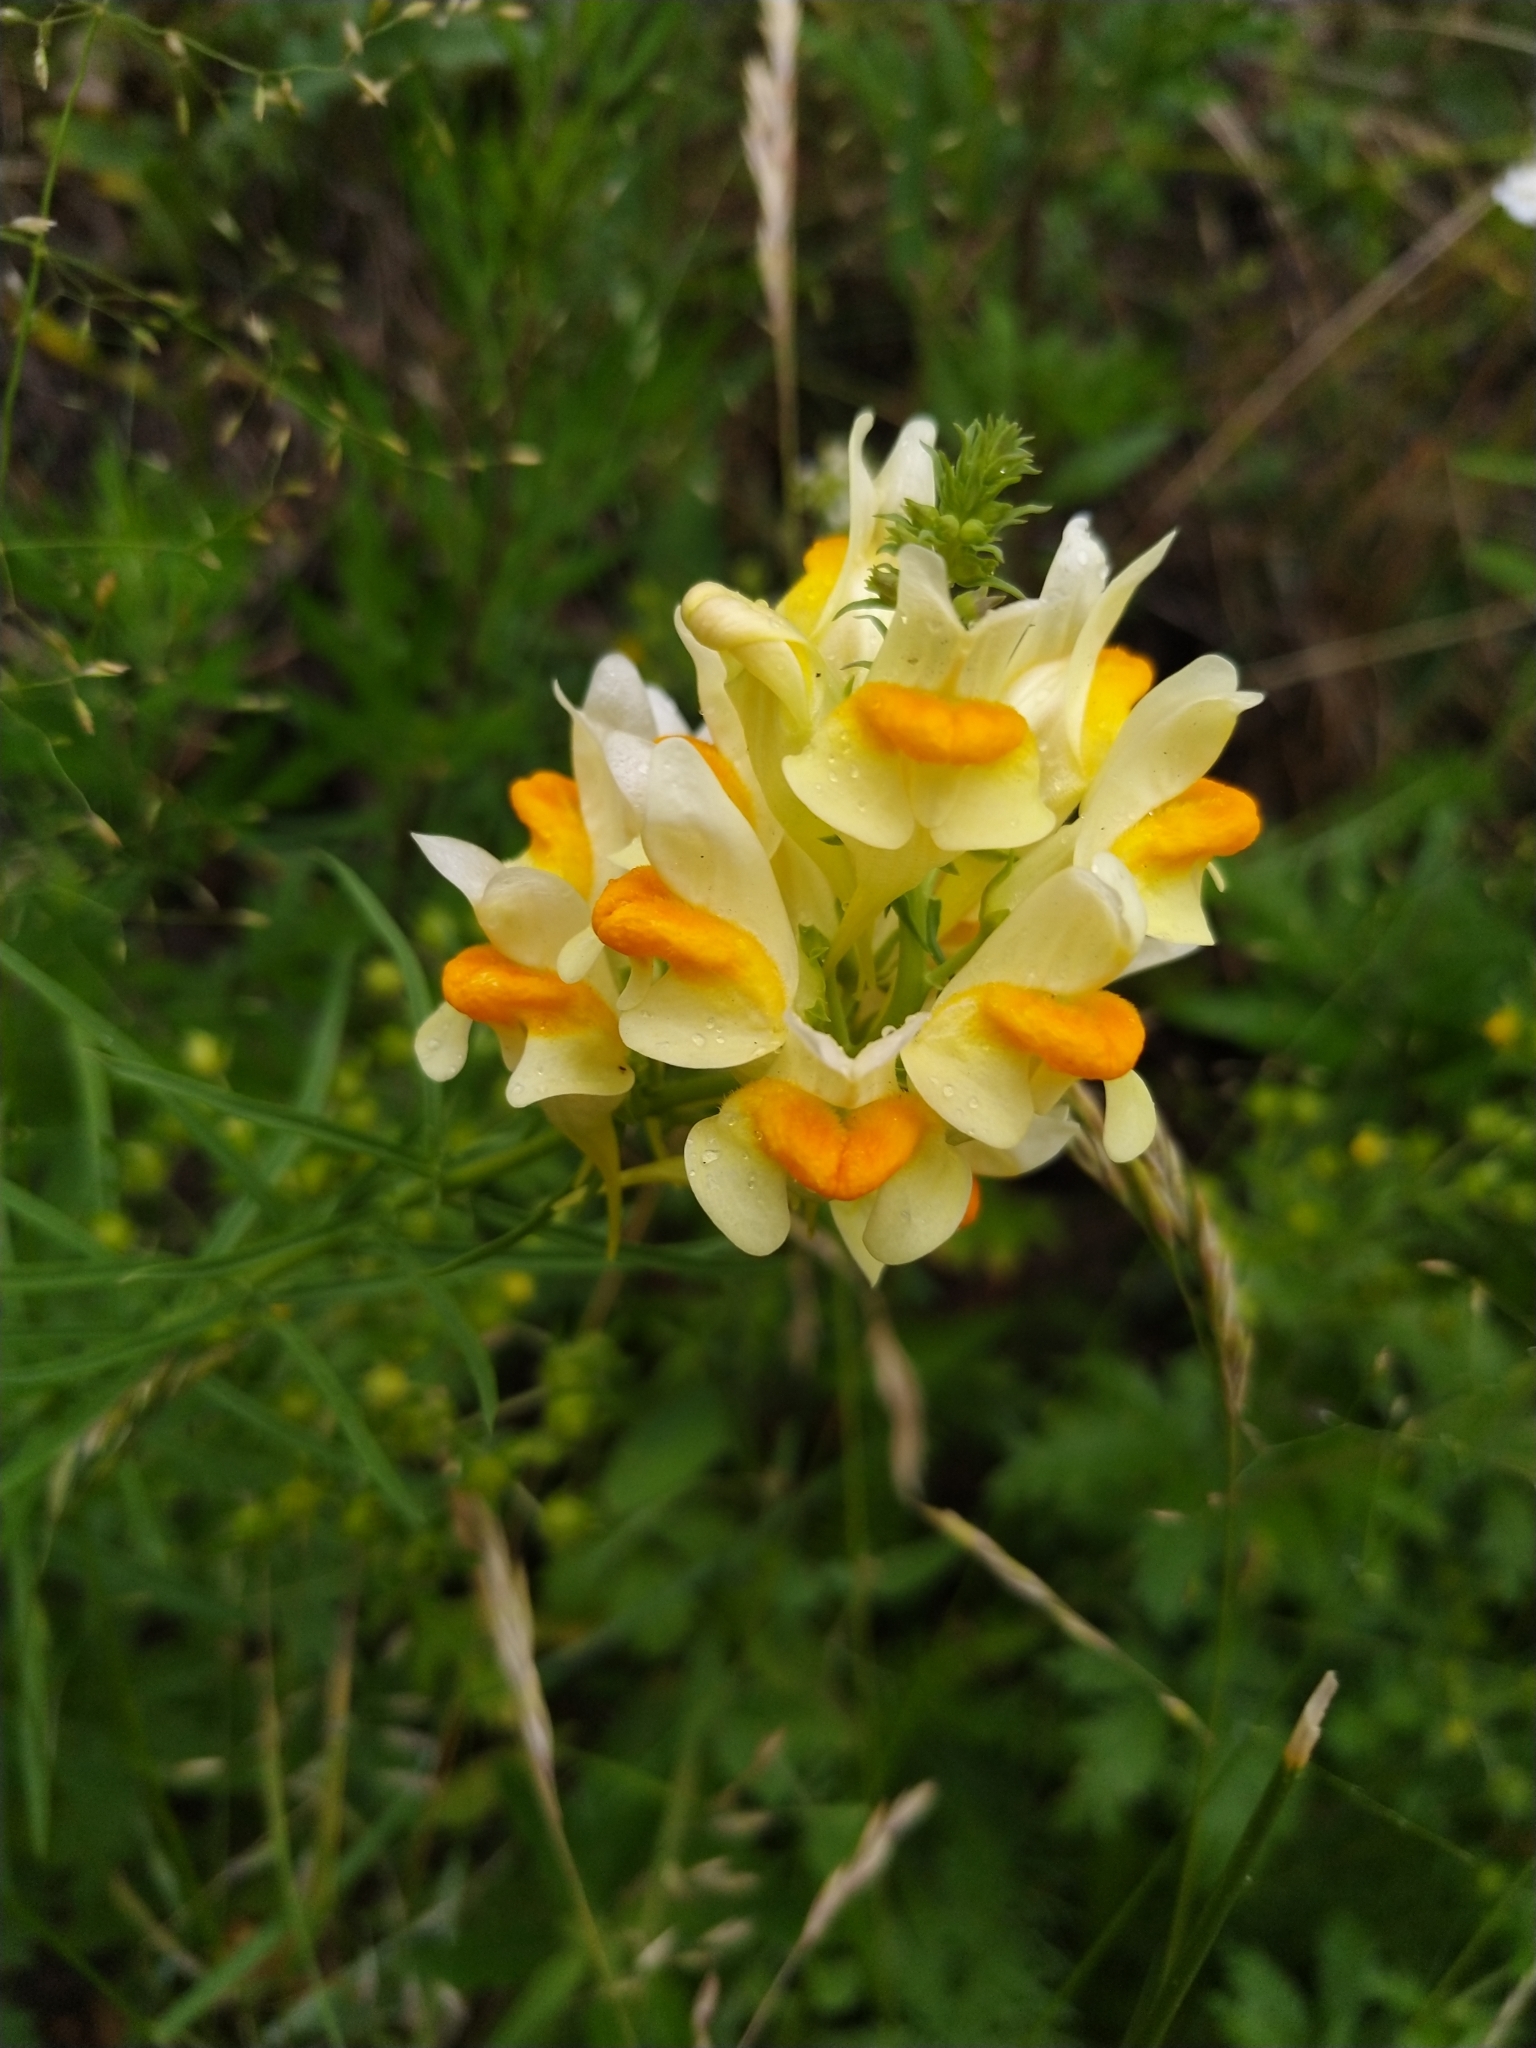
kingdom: Plantae
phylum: Tracheophyta
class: Magnoliopsida
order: Lamiales
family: Plantaginaceae
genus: Linaria
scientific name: Linaria vulgaris
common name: Butter and eggs
